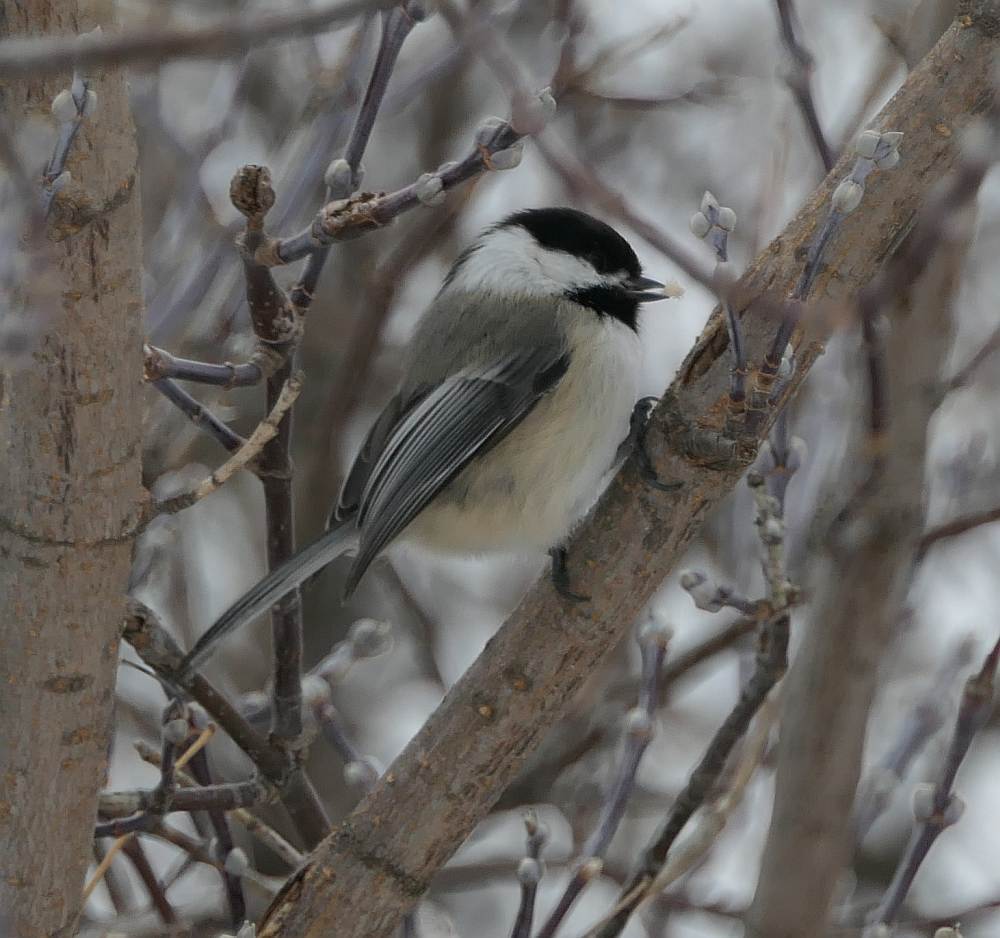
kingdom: Animalia
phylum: Chordata
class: Aves
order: Passeriformes
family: Paridae
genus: Poecile
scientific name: Poecile atricapillus
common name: Black-capped chickadee
